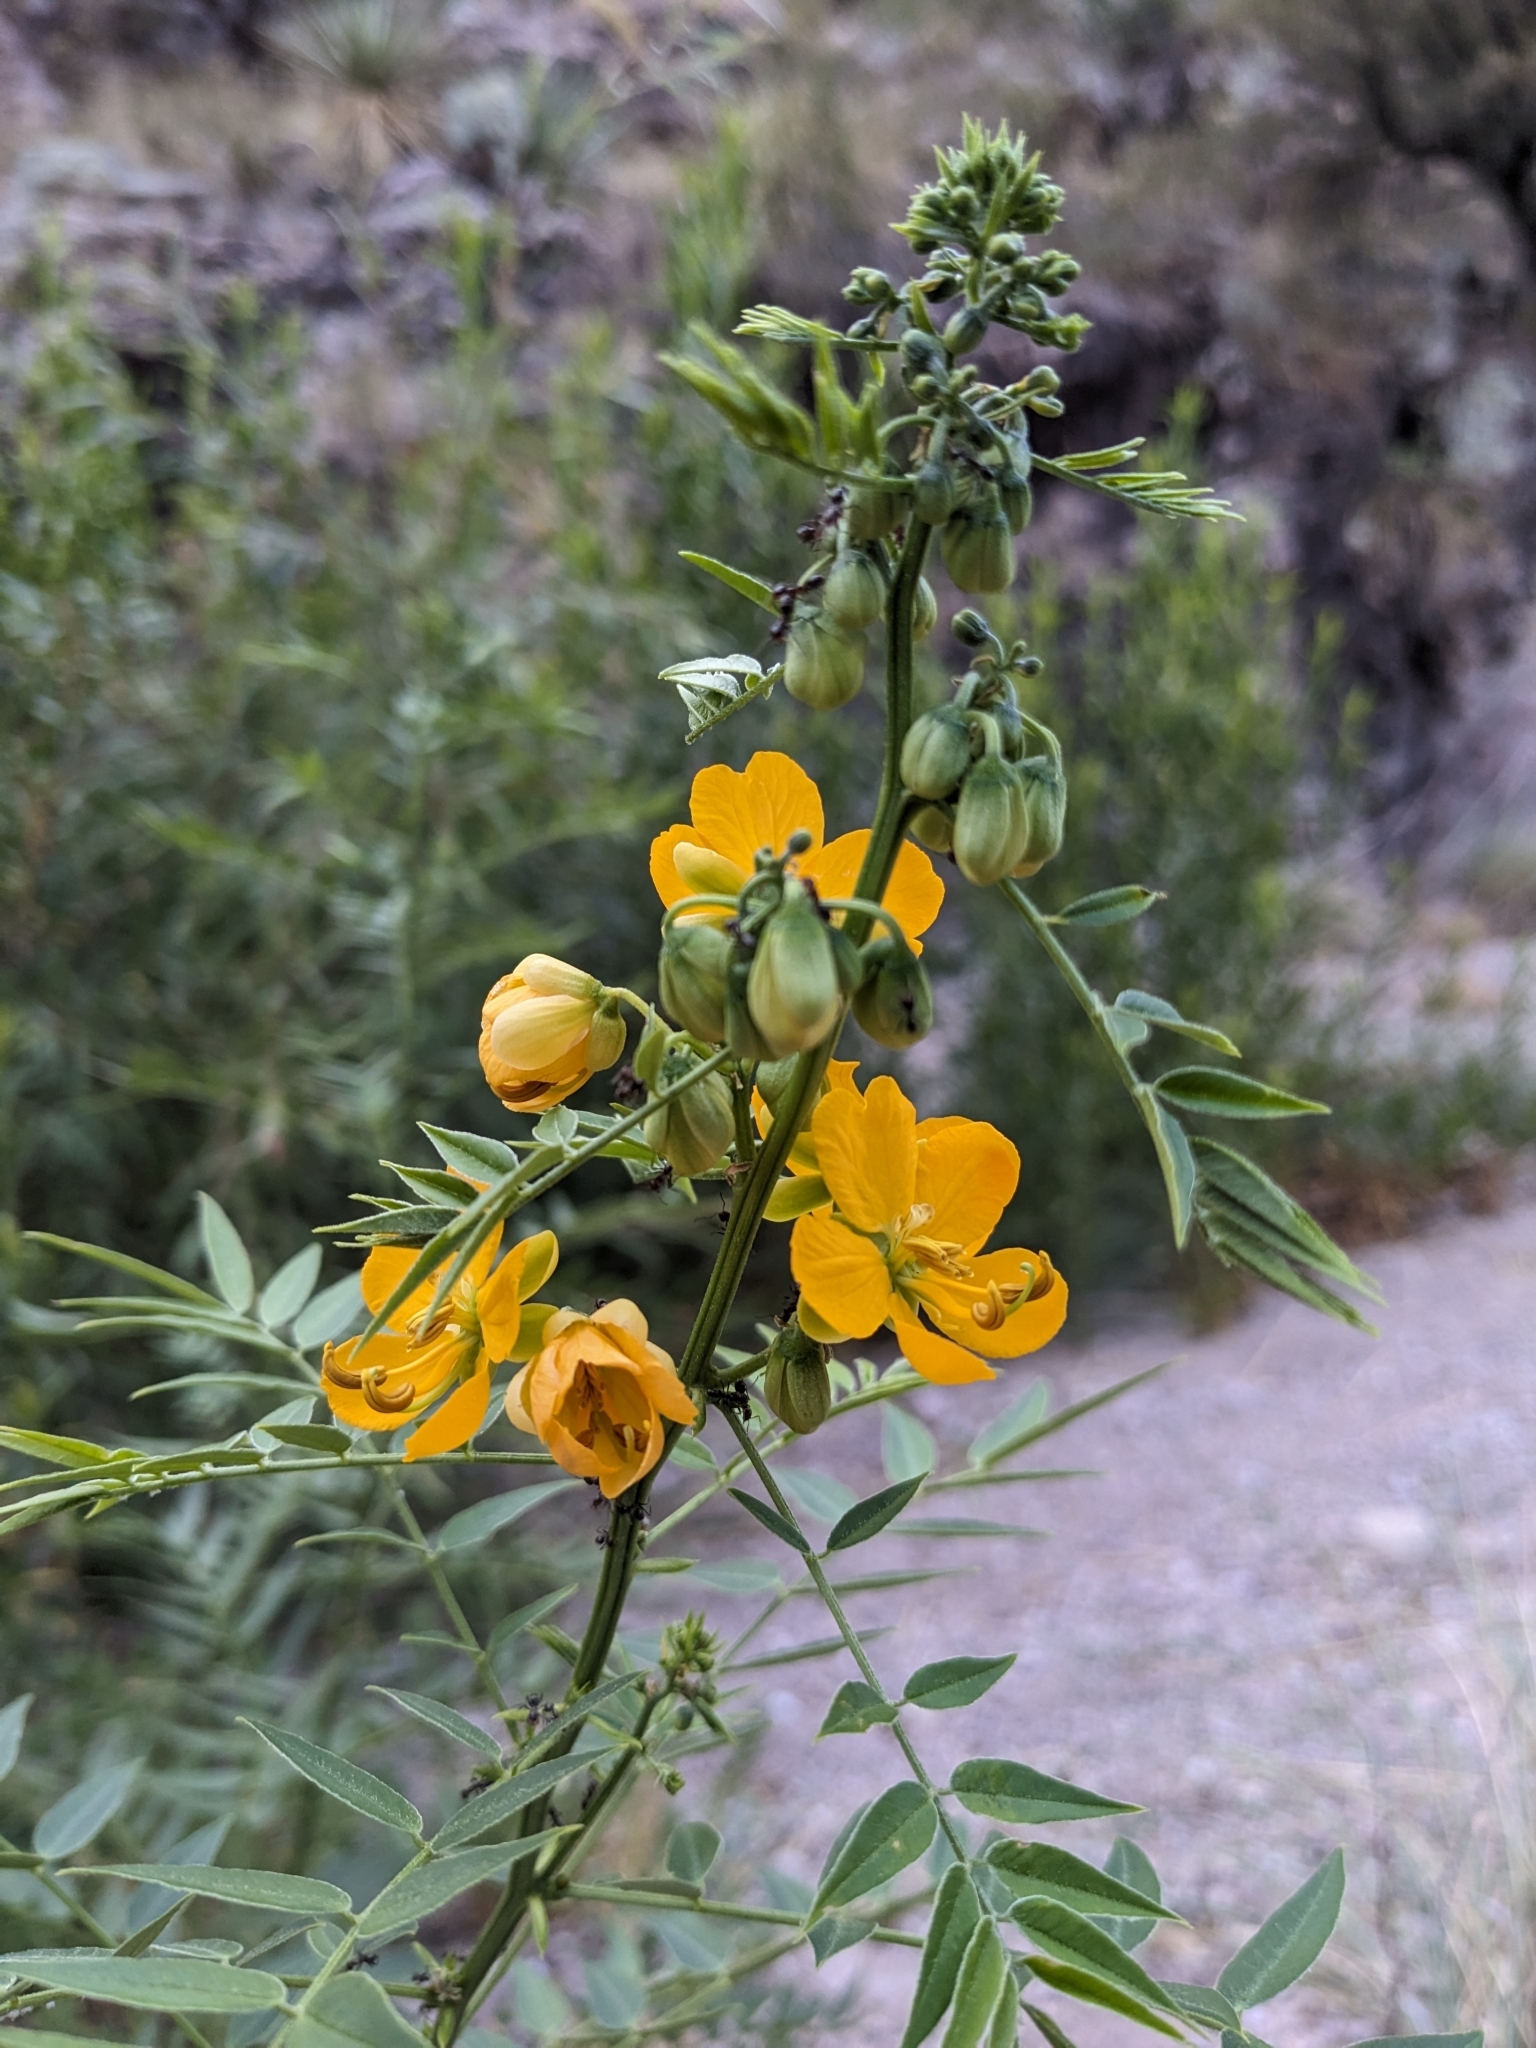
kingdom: Plantae
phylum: Tracheophyta
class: Magnoliopsida
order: Fabales
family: Fabaceae
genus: Senna
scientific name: Senna hirsuta
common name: Woolly senna
